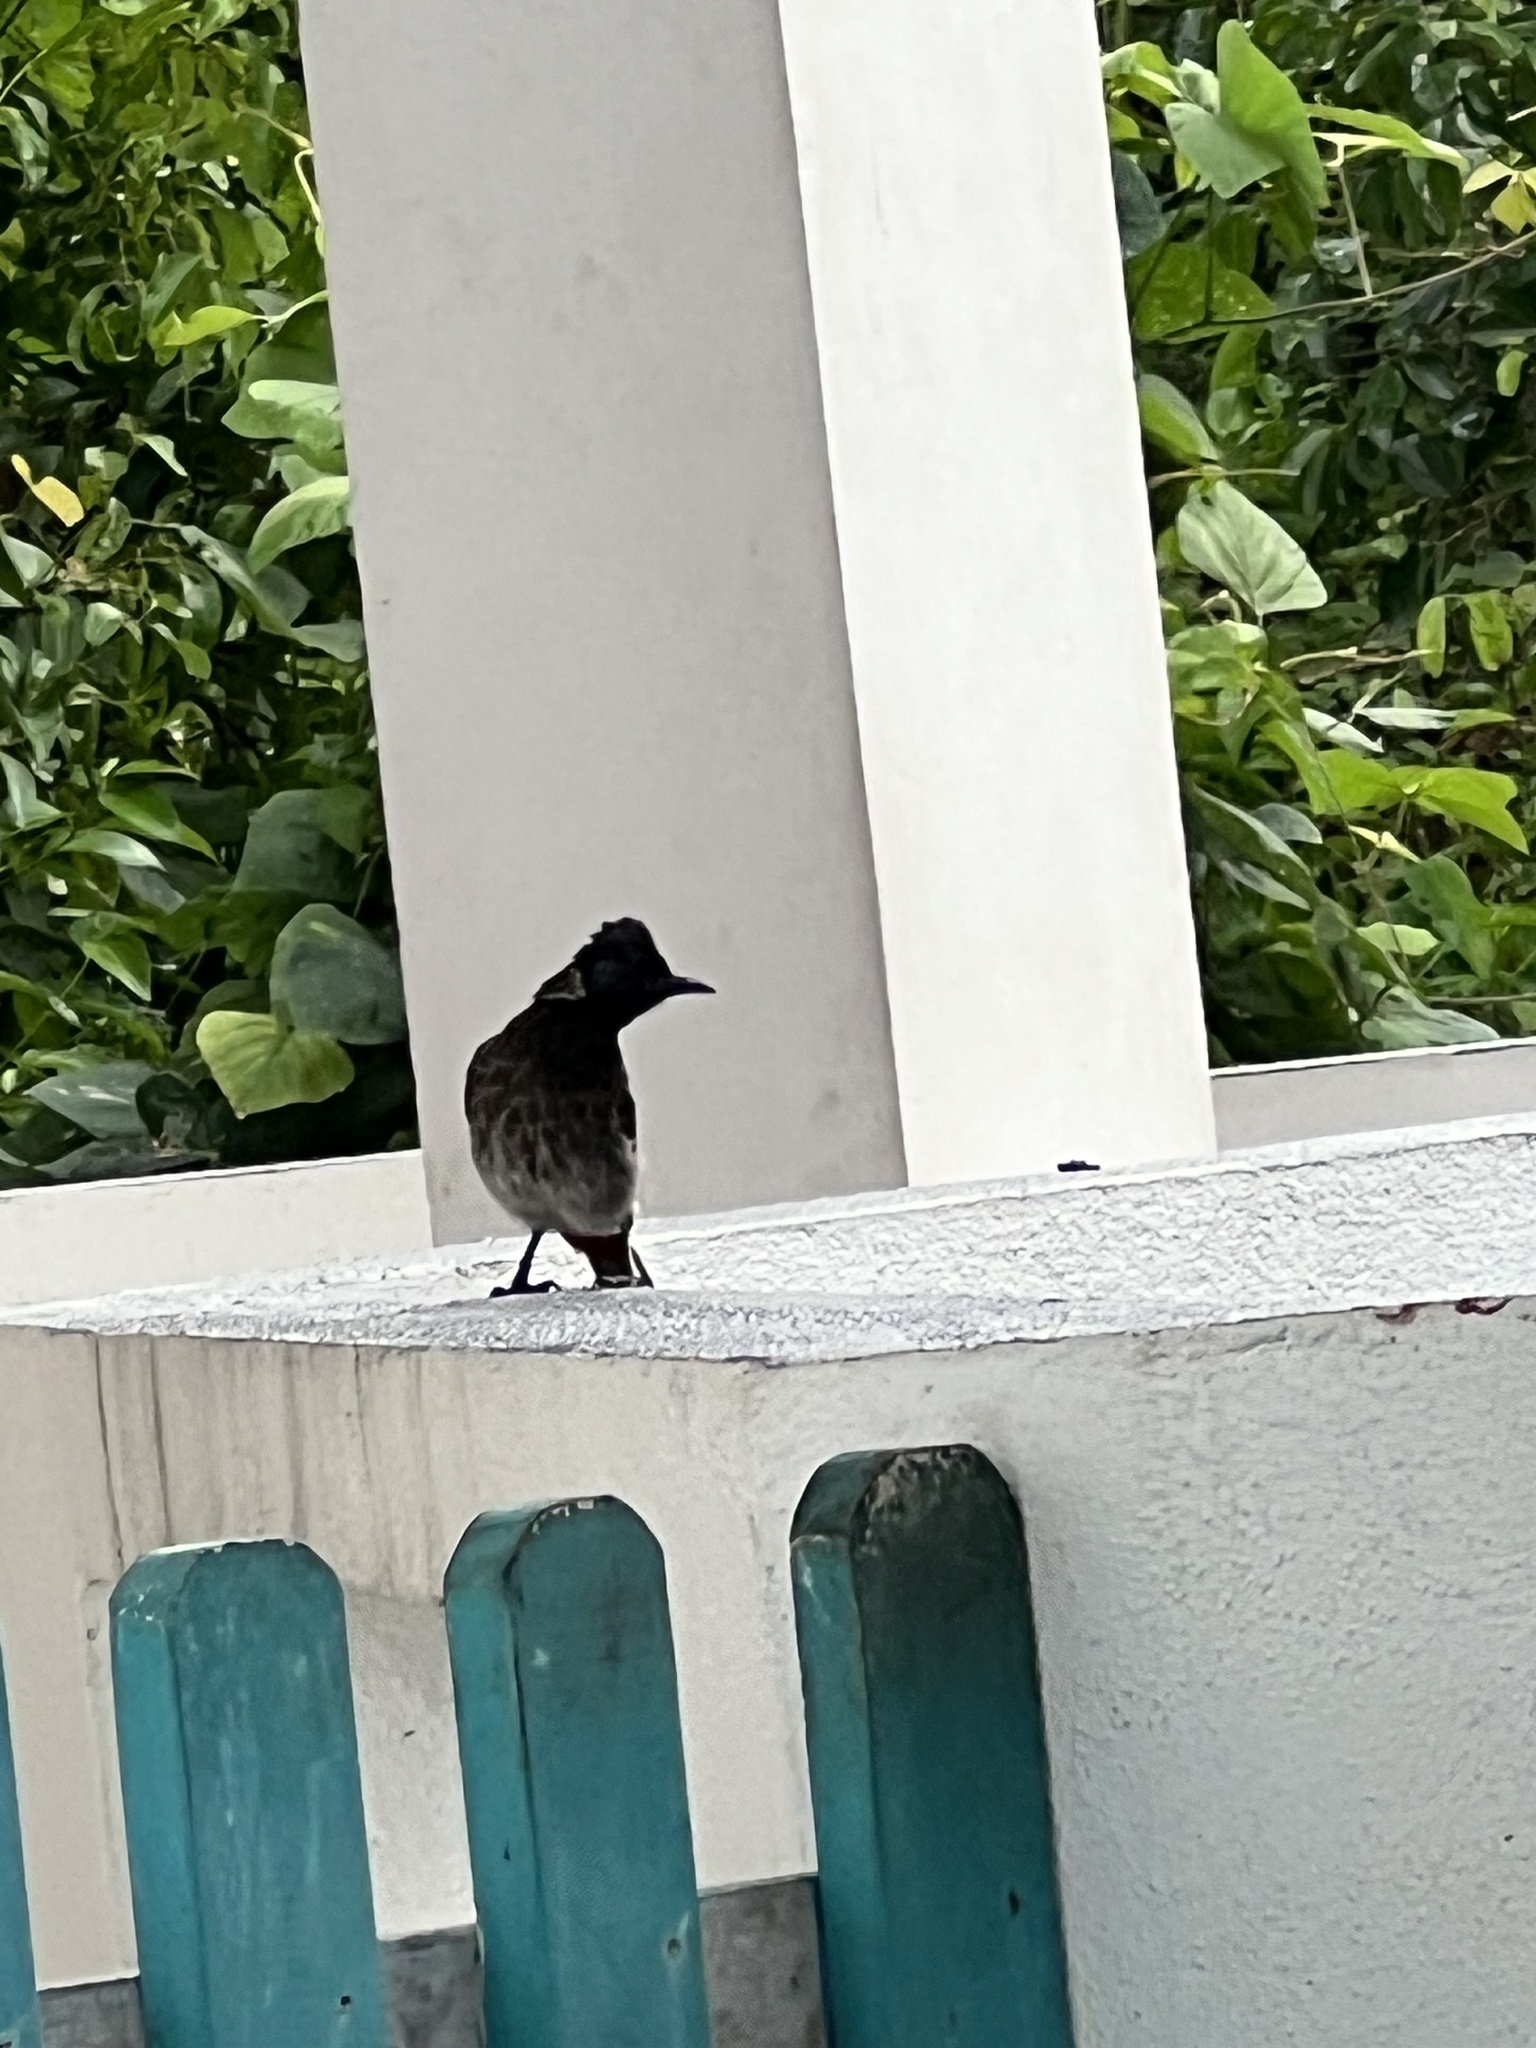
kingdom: Animalia
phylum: Chordata
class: Aves
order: Passeriformes
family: Pycnonotidae
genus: Pycnonotus
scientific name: Pycnonotus cafer
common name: Red-vented bulbul
